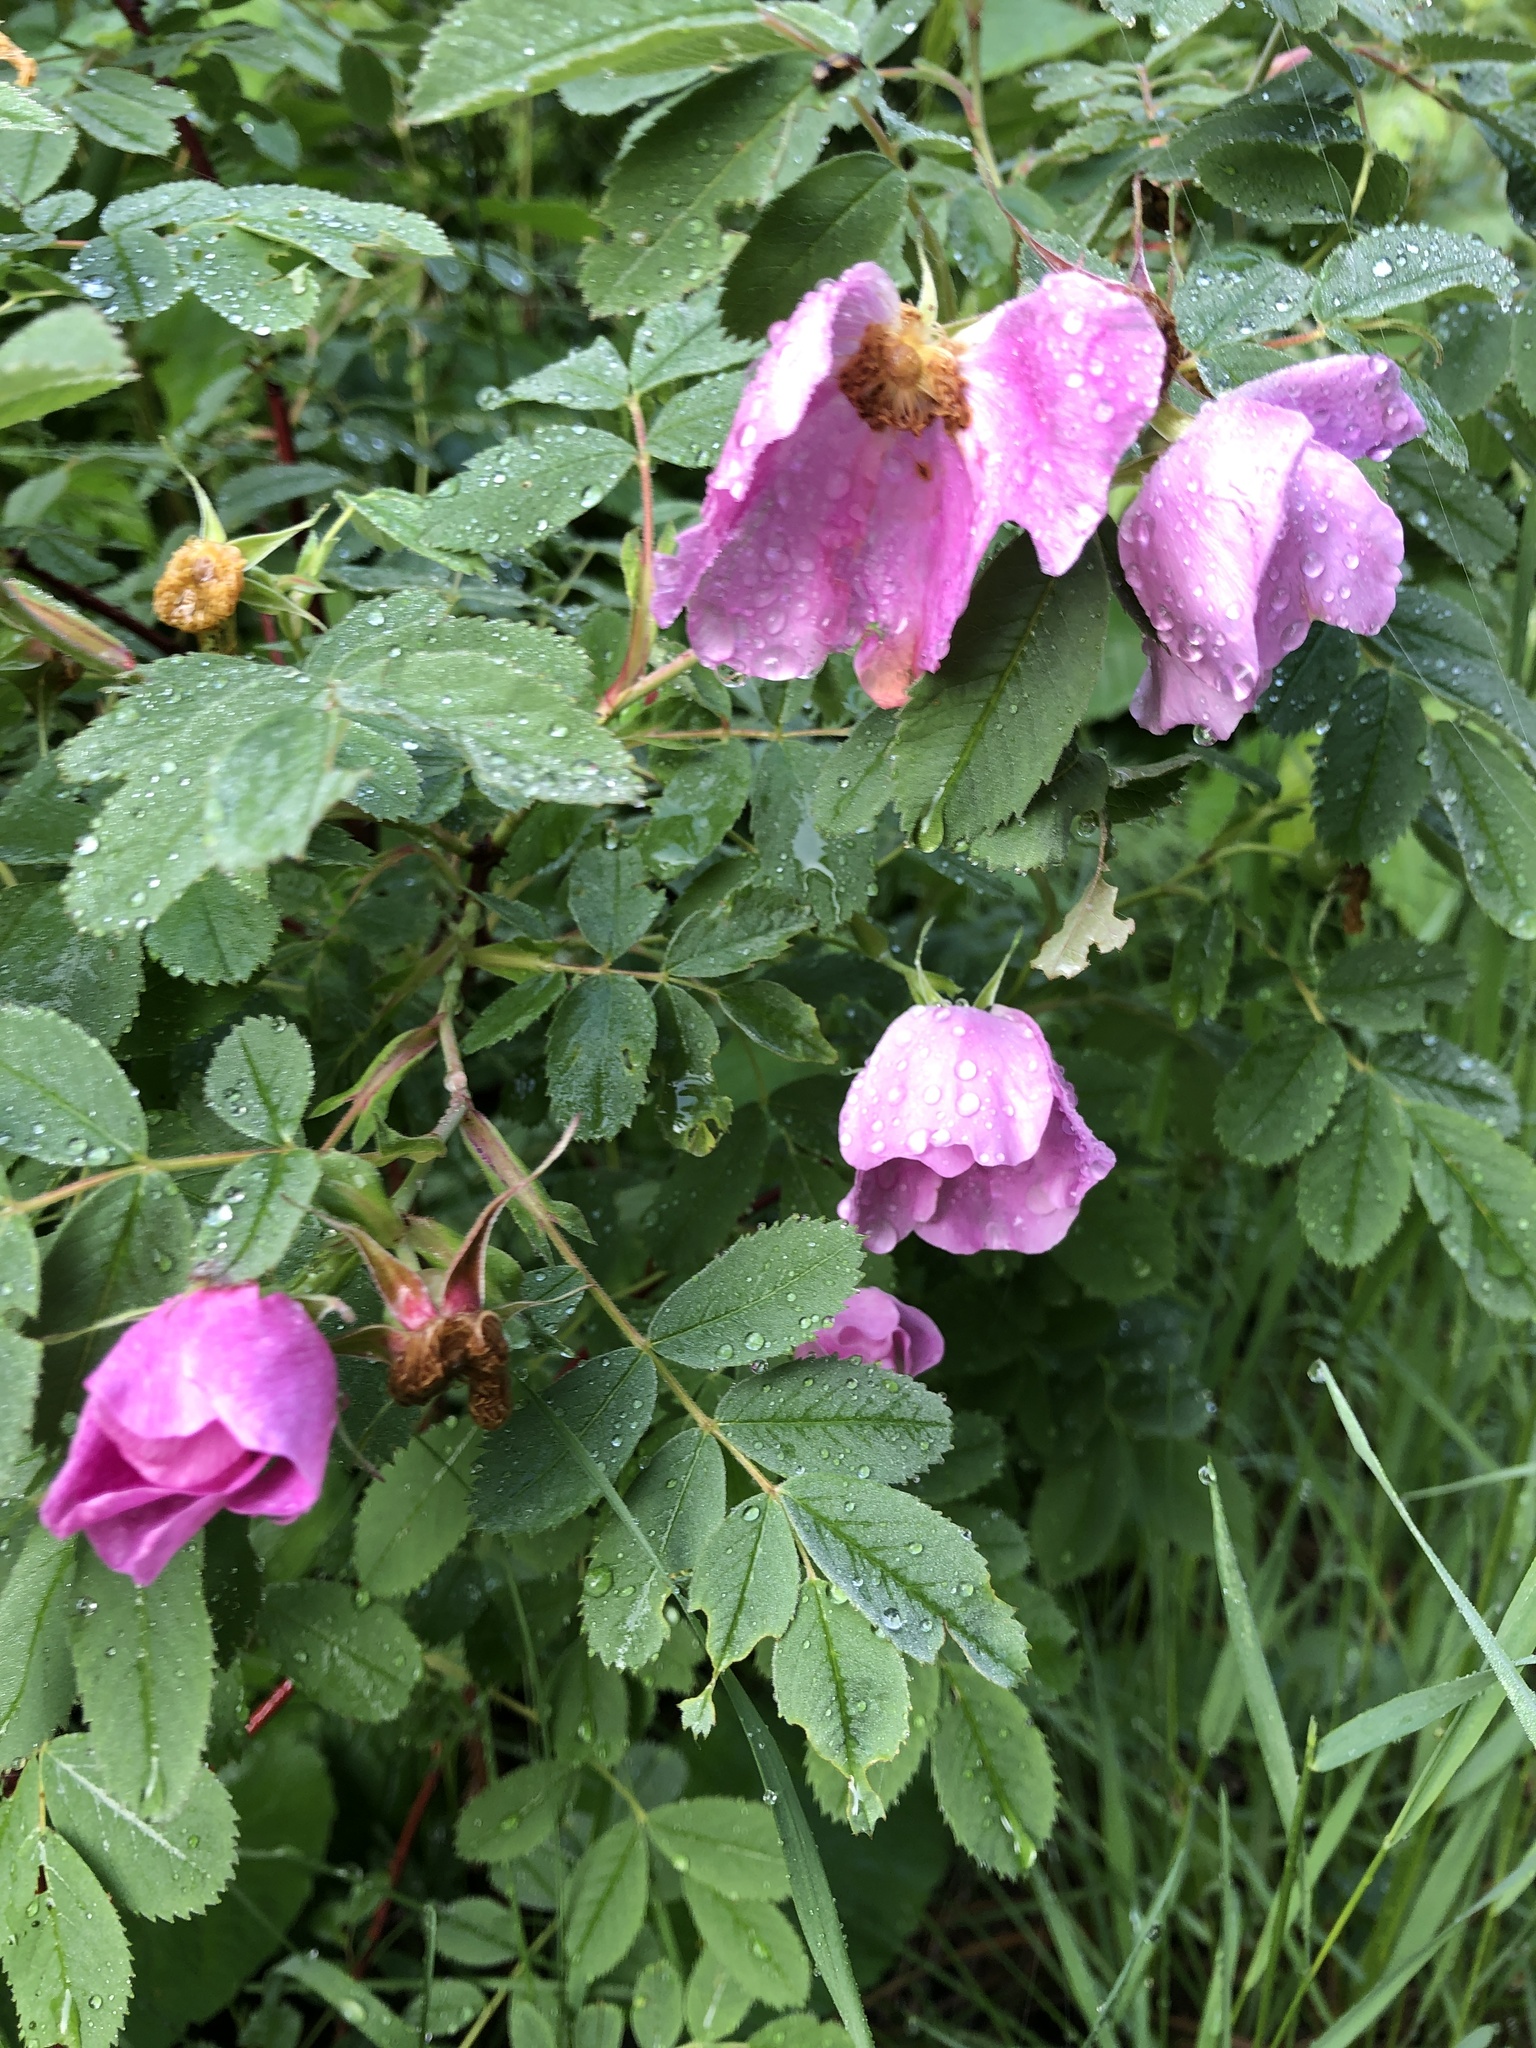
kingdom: Plantae
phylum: Tracheophyta
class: Magnoliopsida
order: Rosales
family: Rosaceae
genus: Rosa
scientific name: Rosa acicularis
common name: Prickly rose
